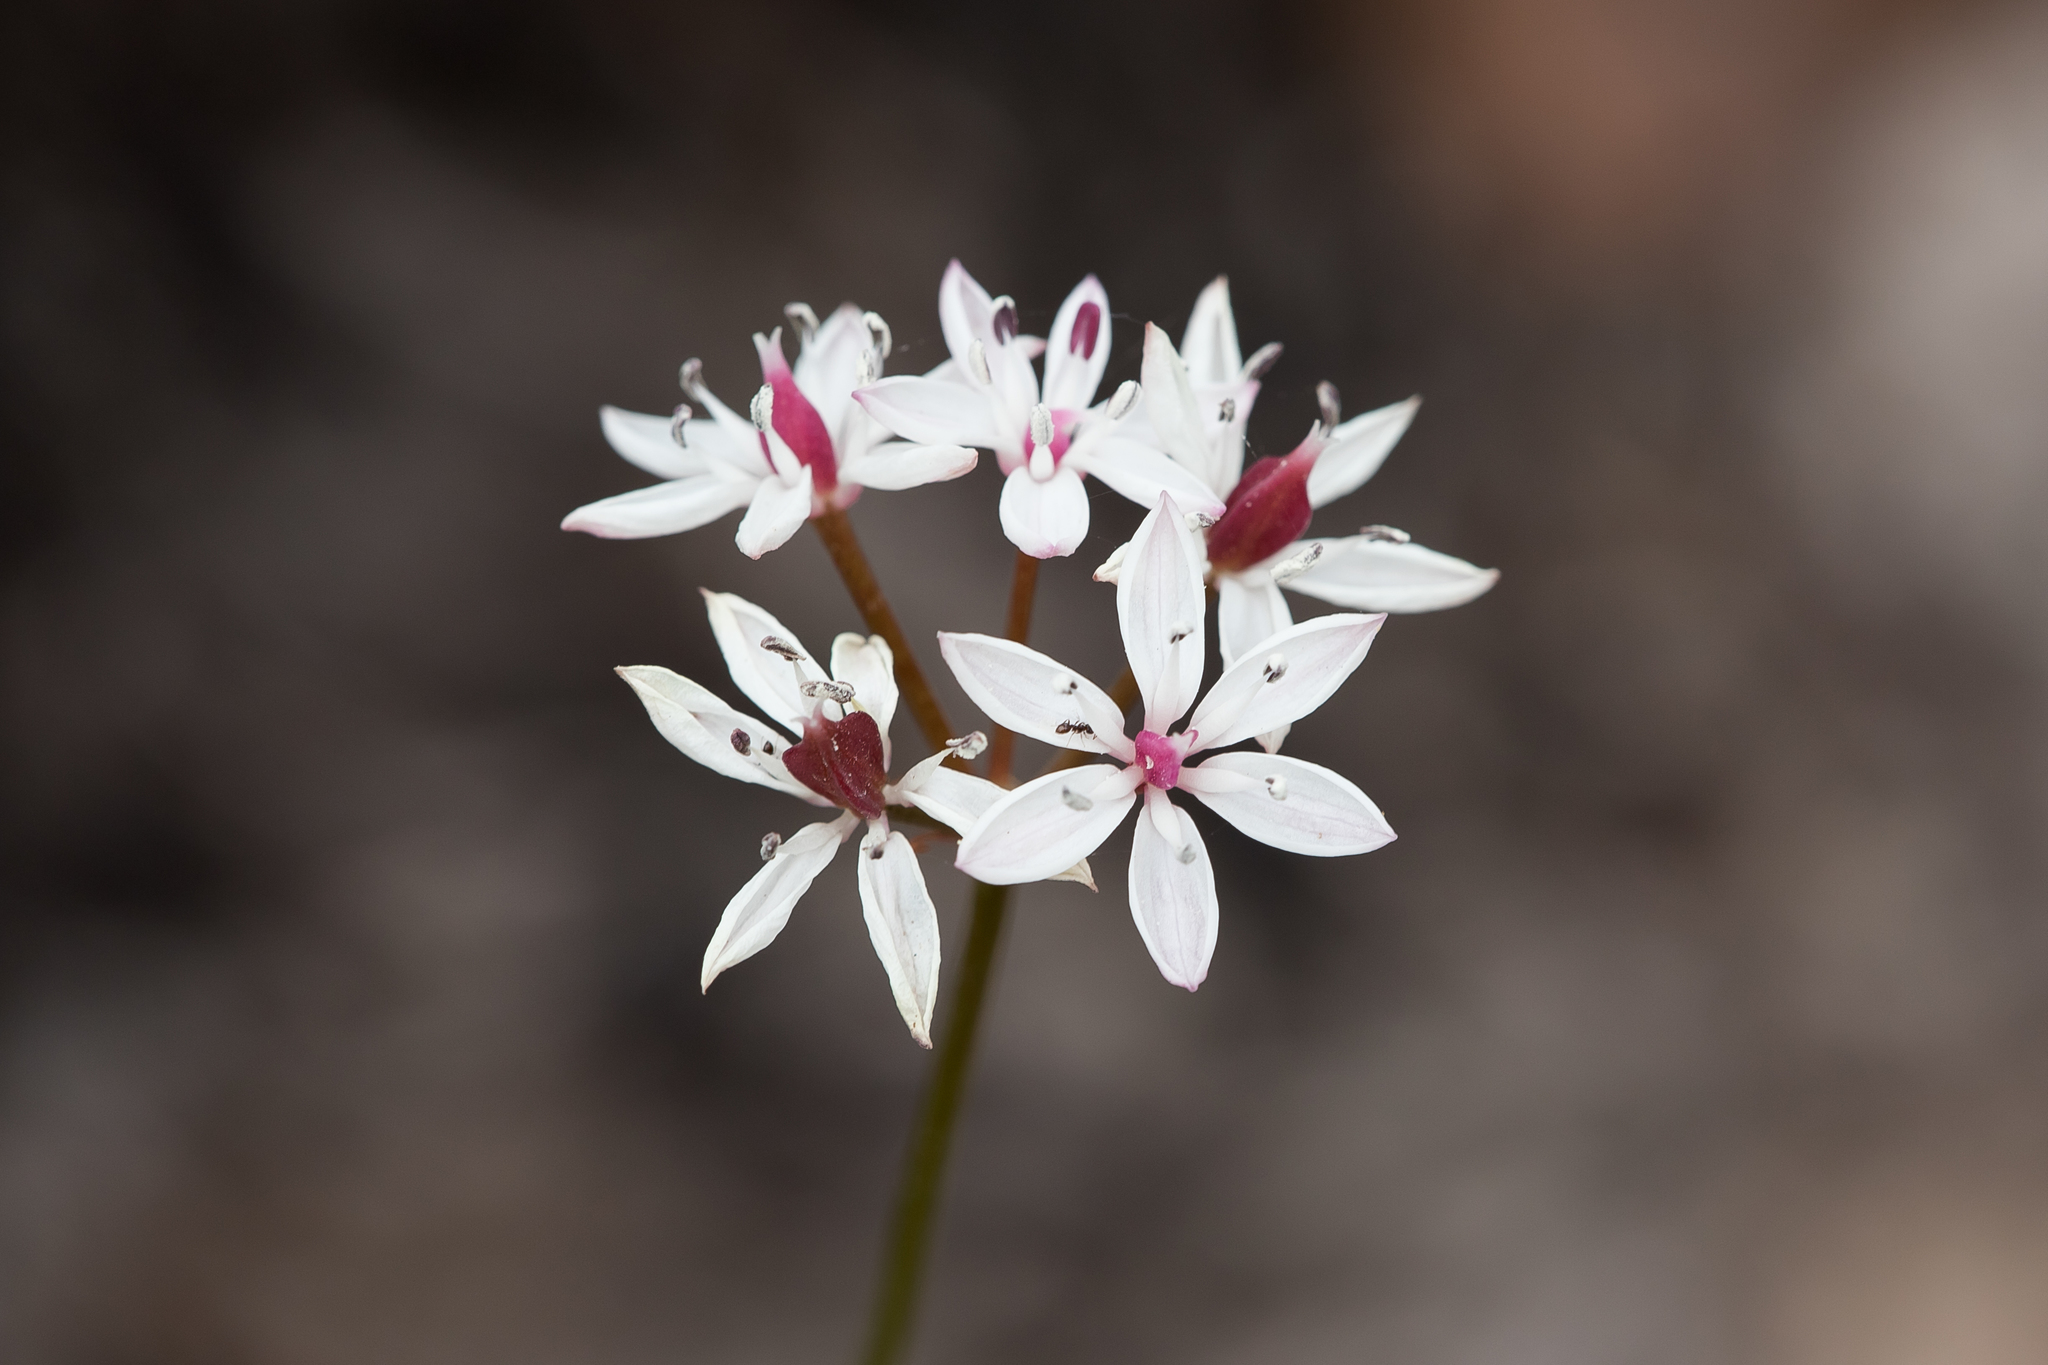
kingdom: Plantae
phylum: Tracheophyta
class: Liliopsida
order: Liliales
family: Colchicaceae
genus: Burchardia
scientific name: Burchardia umbellata
